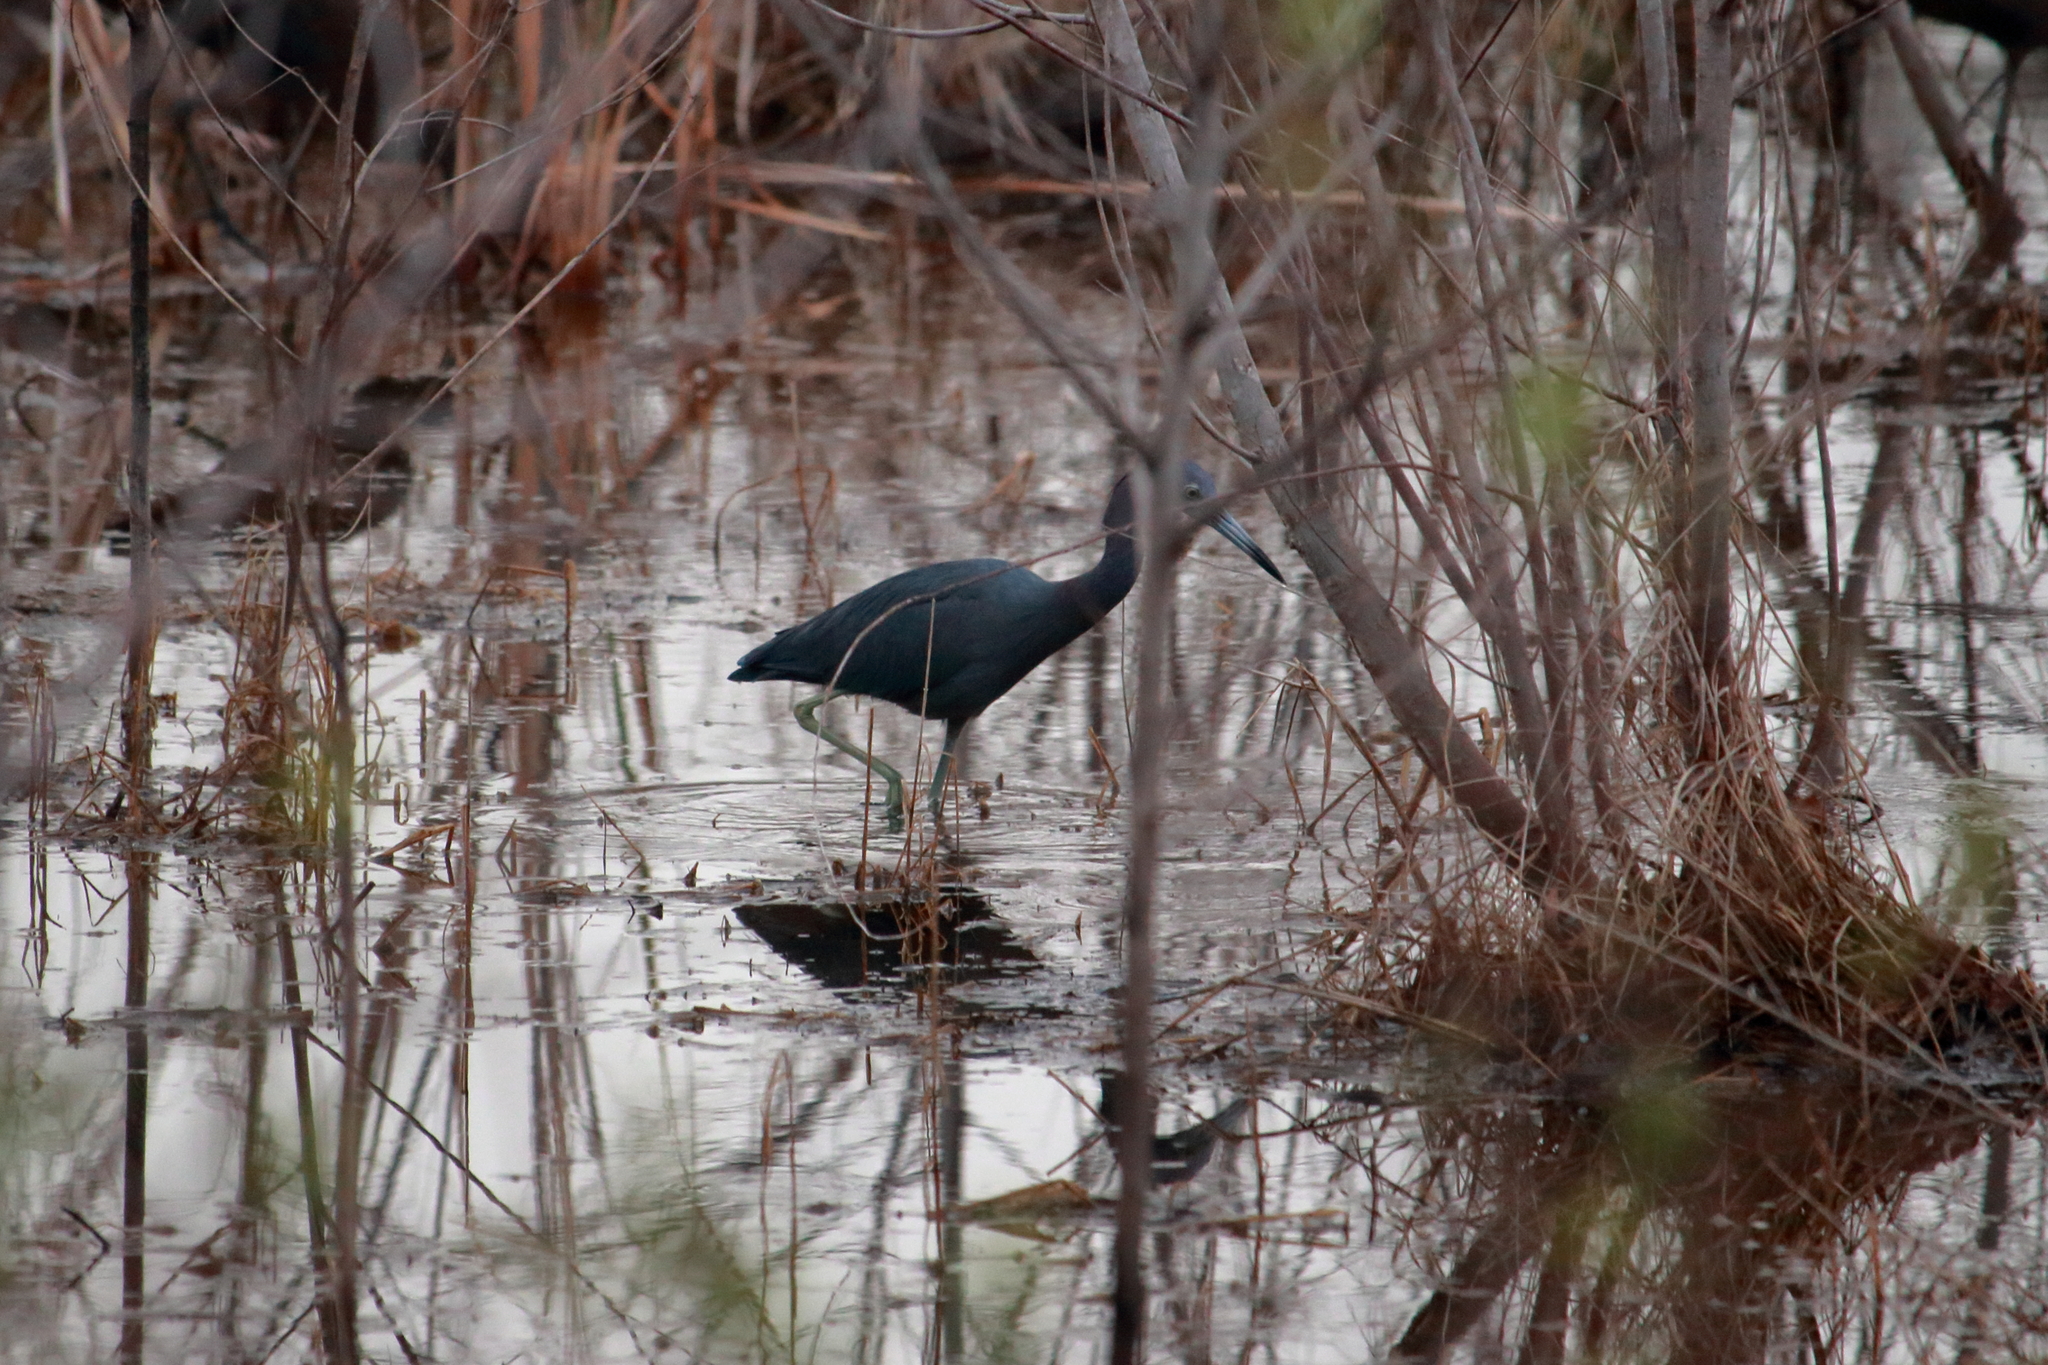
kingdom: Animalia
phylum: Chordata
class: Aves
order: Pelecaniformes
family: Ardeidae
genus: Egretta
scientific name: Egretta caerulea
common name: Little blue heron
